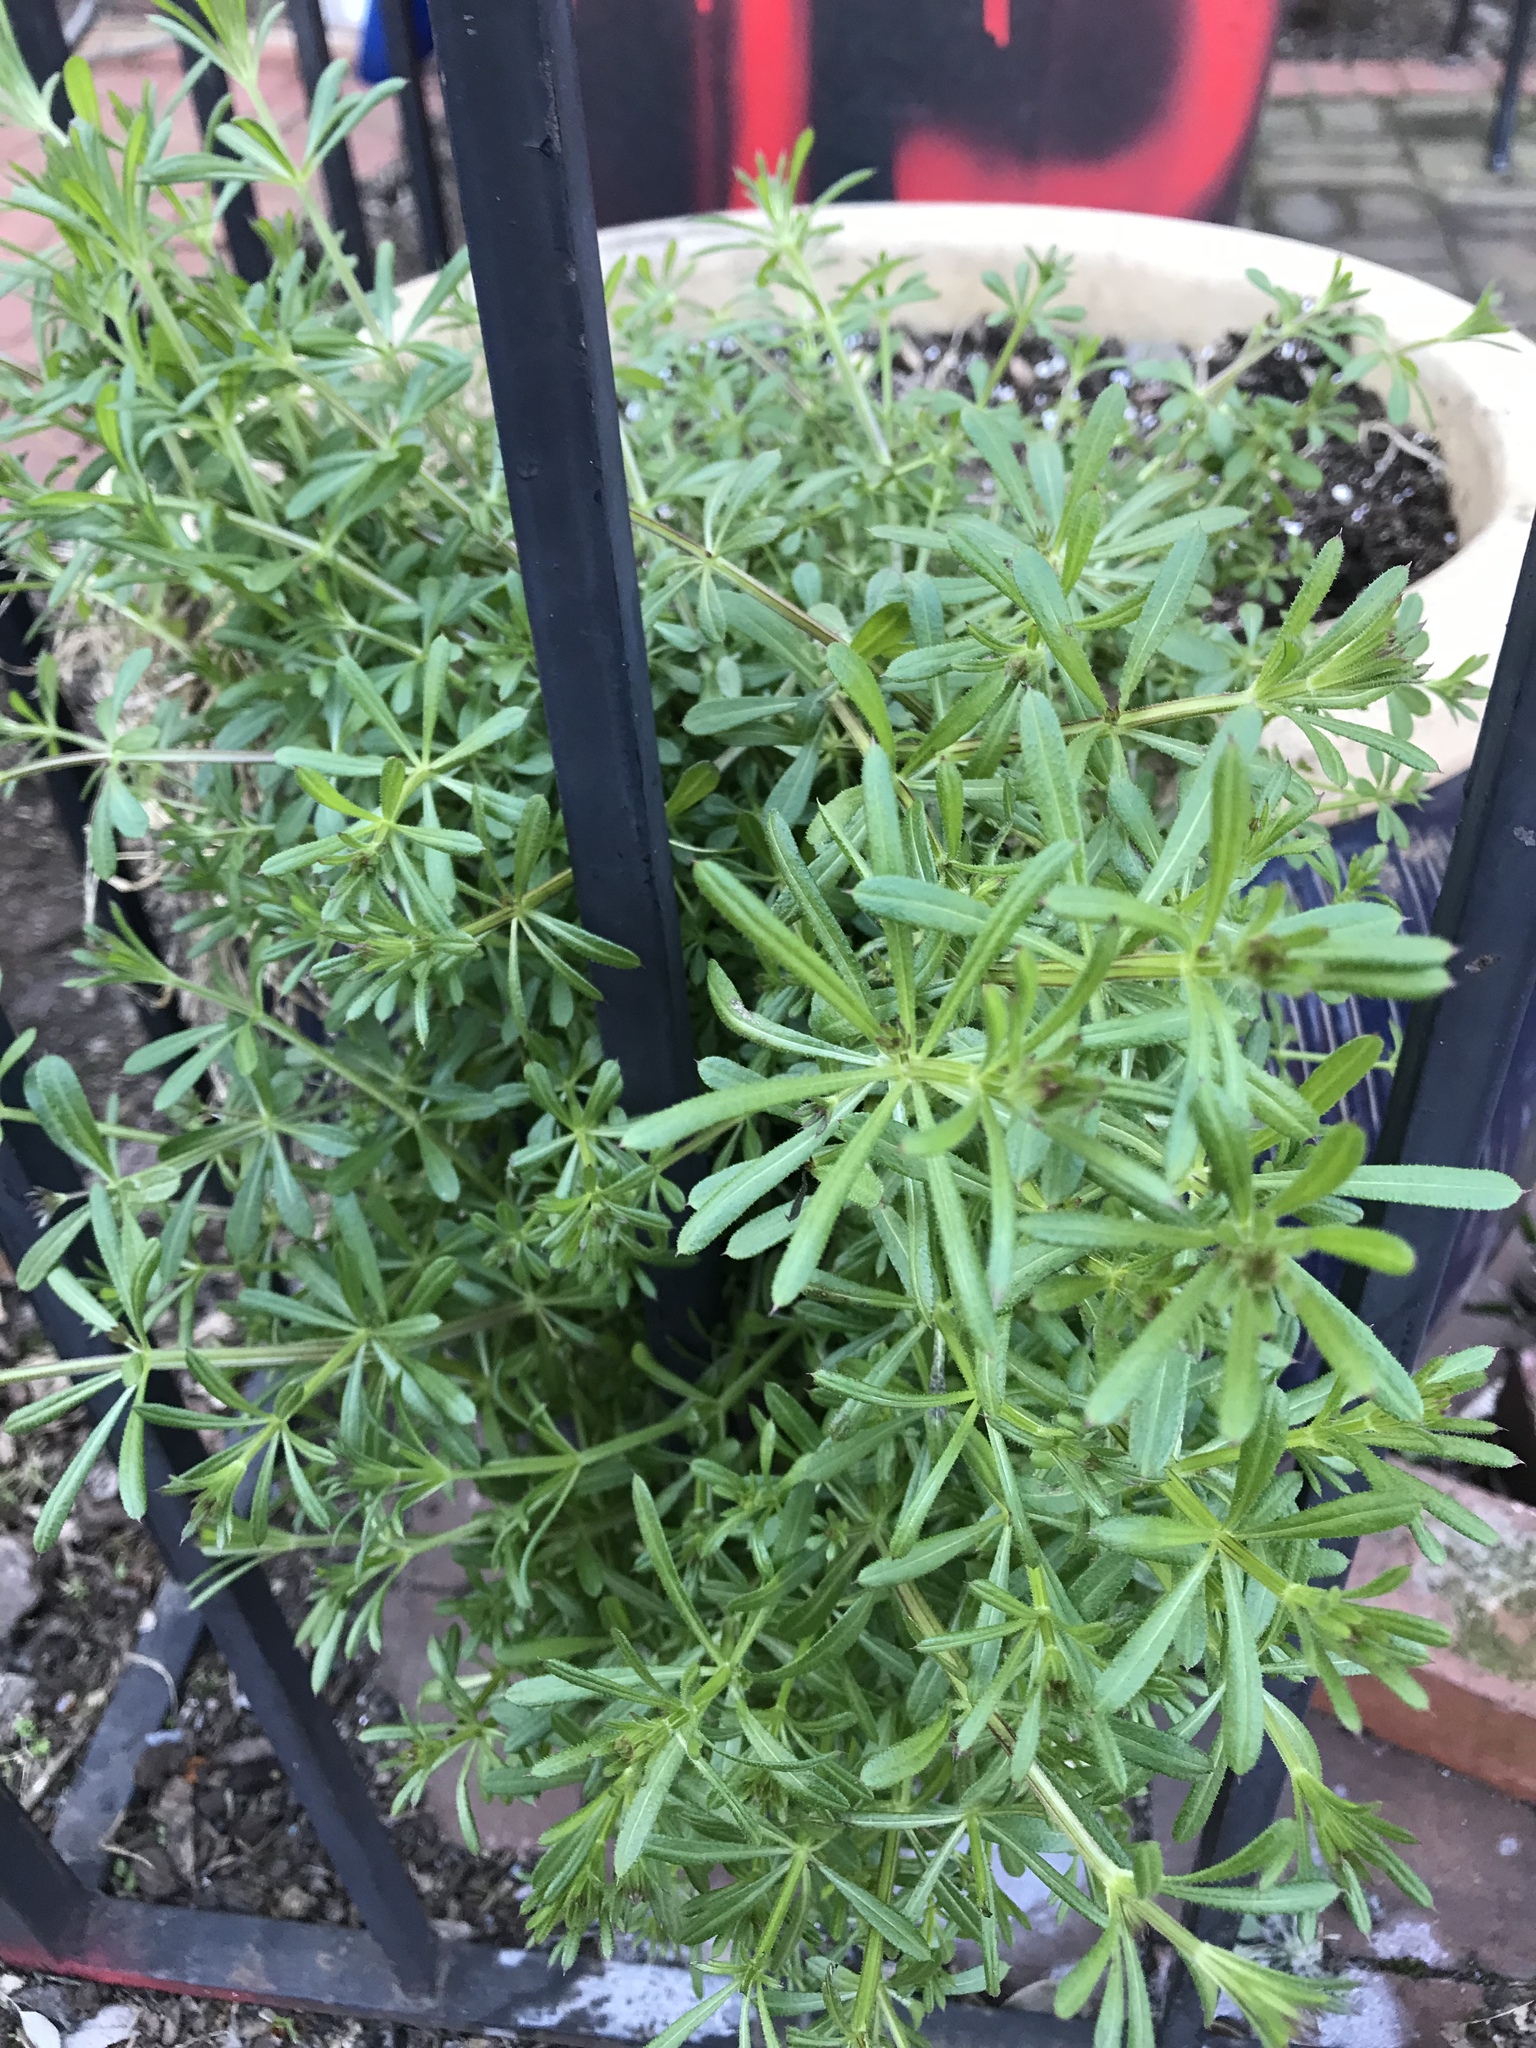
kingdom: Plantae
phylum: Tracheophyta
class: Magnoliopsida
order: Gentianales
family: Rubiaceae
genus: Galium
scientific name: Galium aparine
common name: Cleavers
